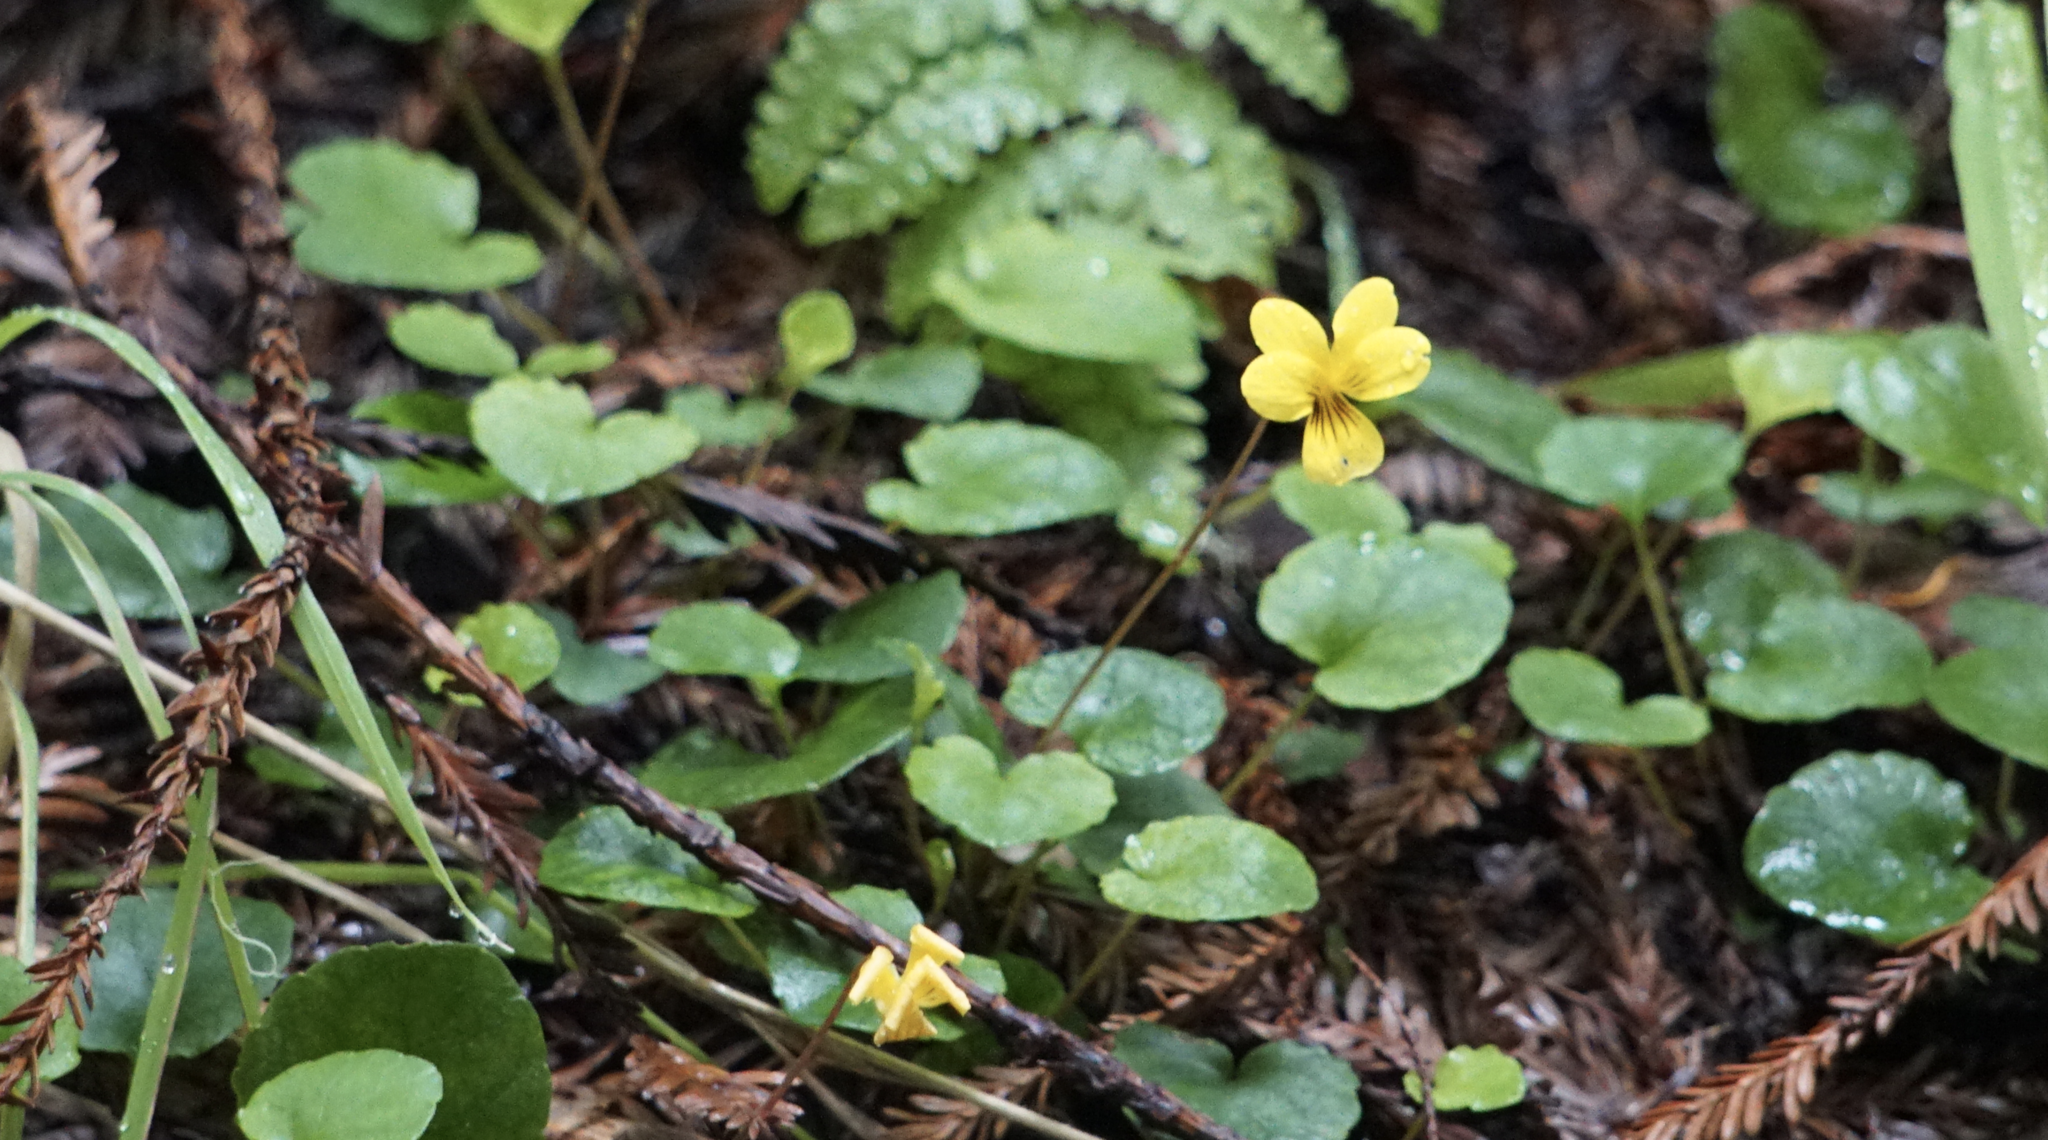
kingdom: Plantae
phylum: Tracheophyta
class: Magnoliopsida
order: Malpighiales
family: Violaceae
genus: Viola
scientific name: Viola sempervirens
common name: Evergreen violet
